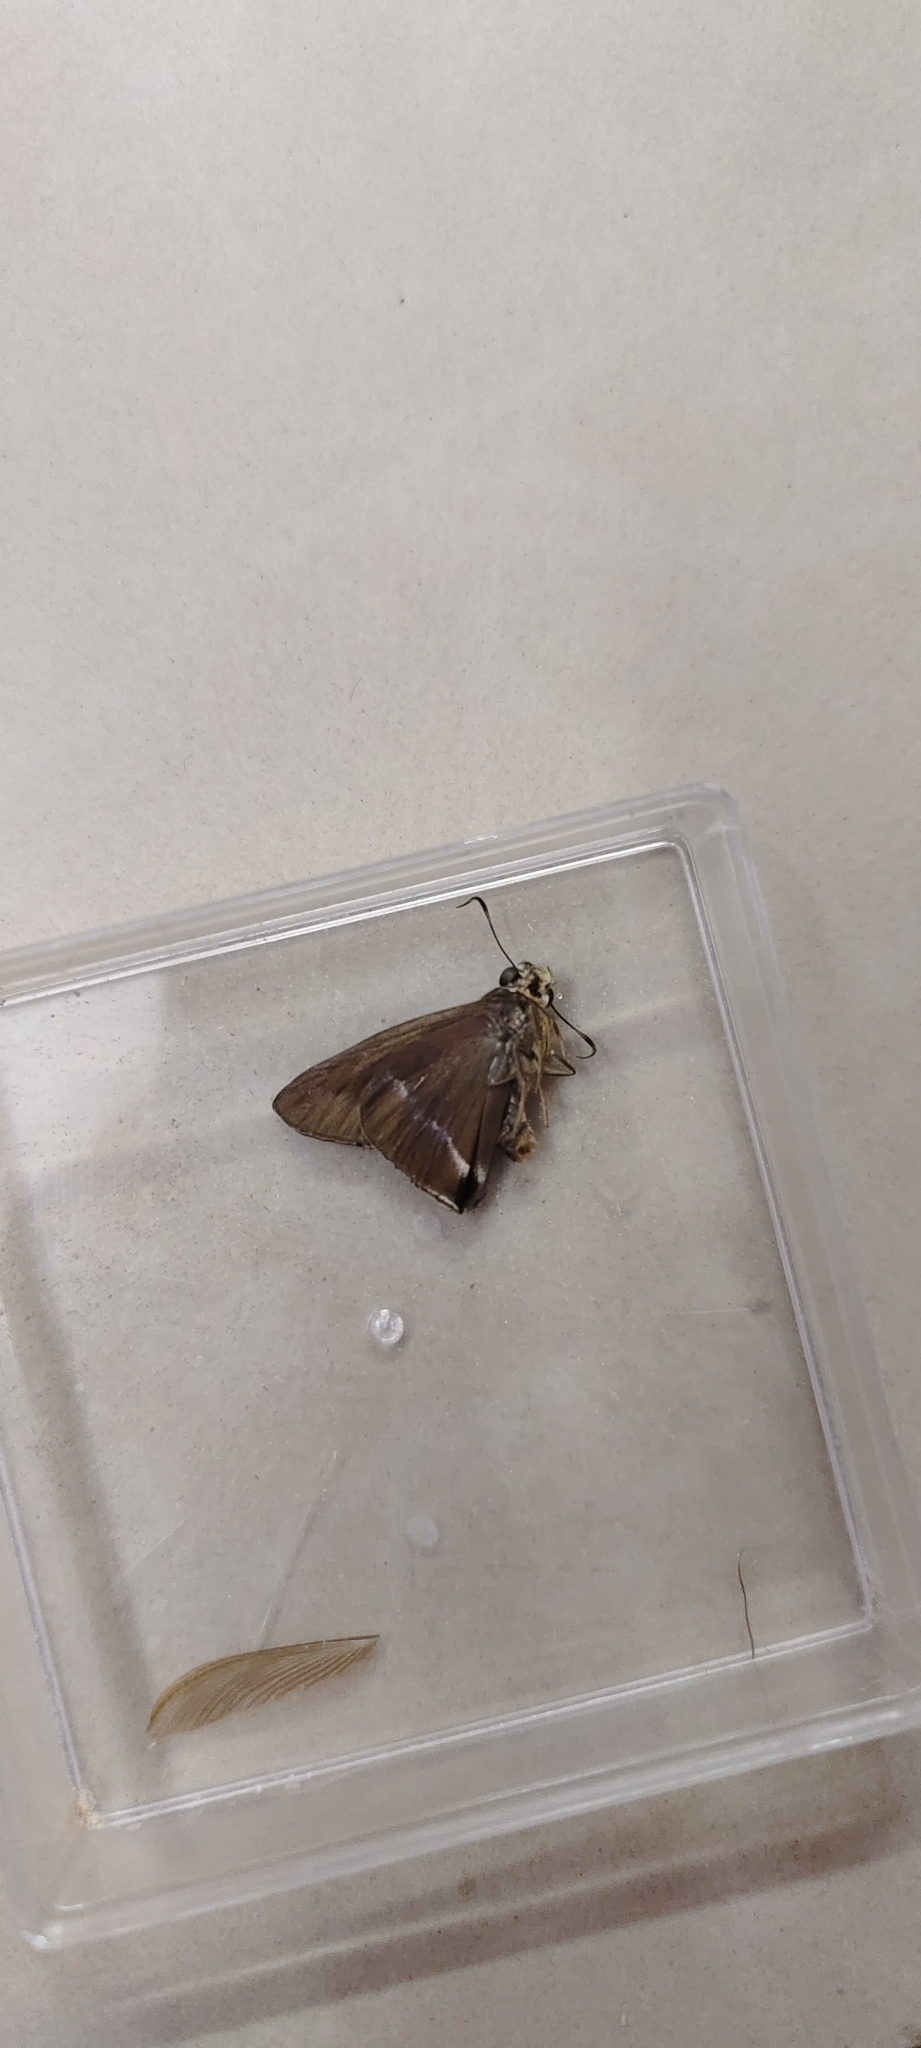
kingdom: Animalia
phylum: Arthropoda
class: Insecta
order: Lepidoptera
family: Hesperiidae
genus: Hasora
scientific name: Hasora chromus
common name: Common banded awl
